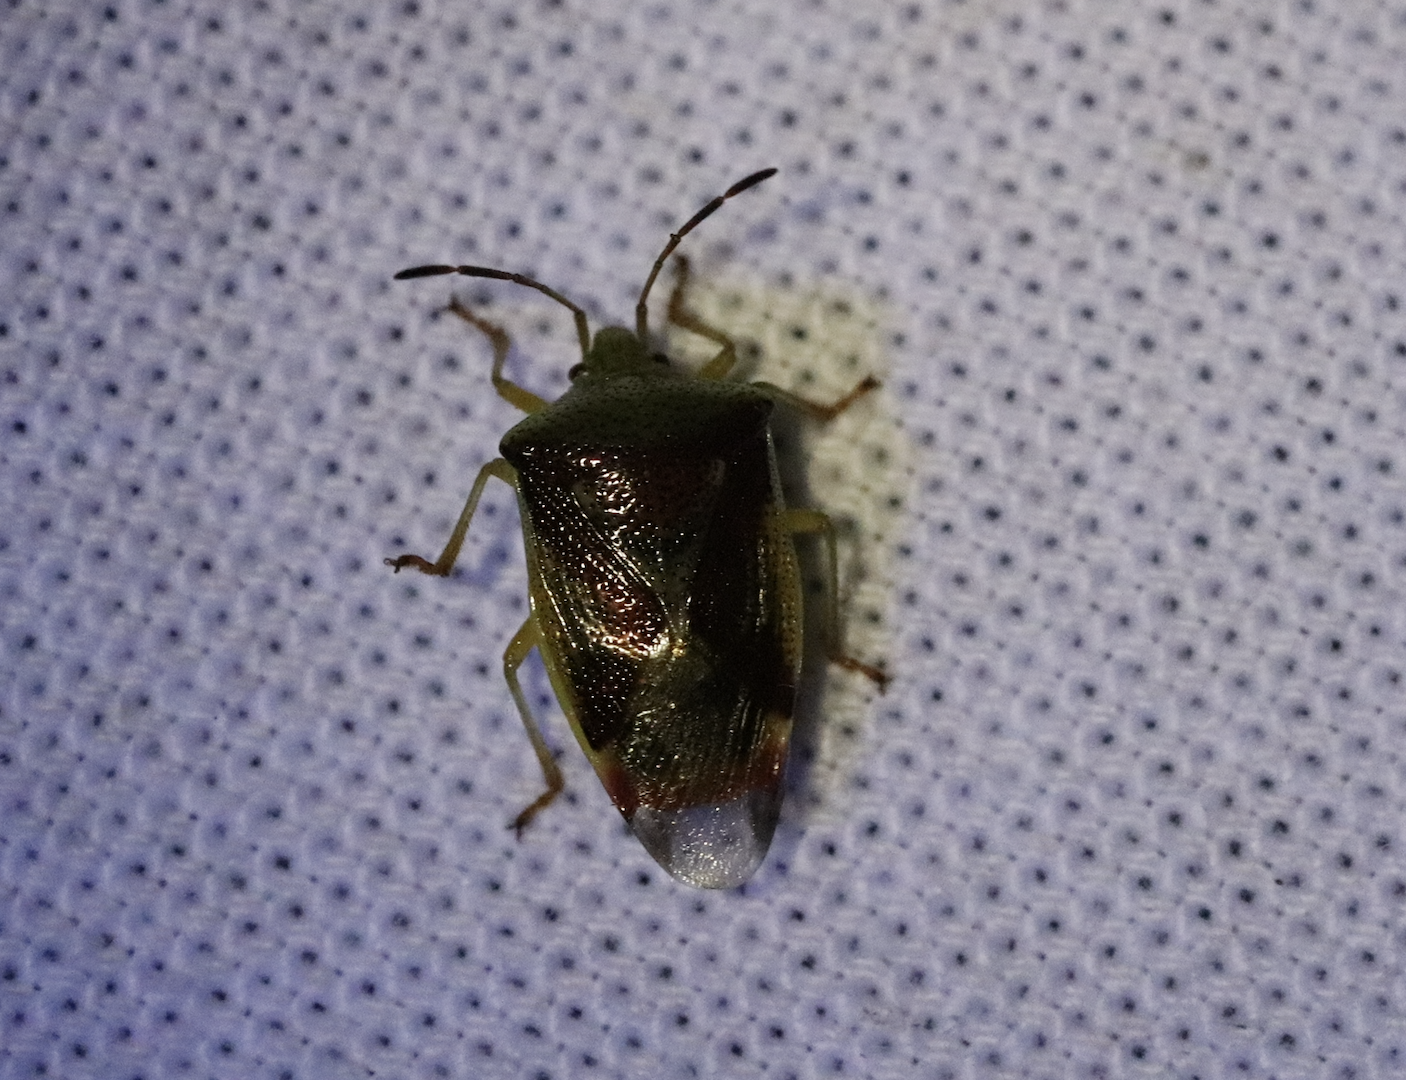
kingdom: Animalia
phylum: Arthropoda
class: Insecta
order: Hemiptera
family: Acanthosomatidae
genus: Elasmostethus
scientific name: Elasmostethus interstinctus
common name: Birch shieldbug
